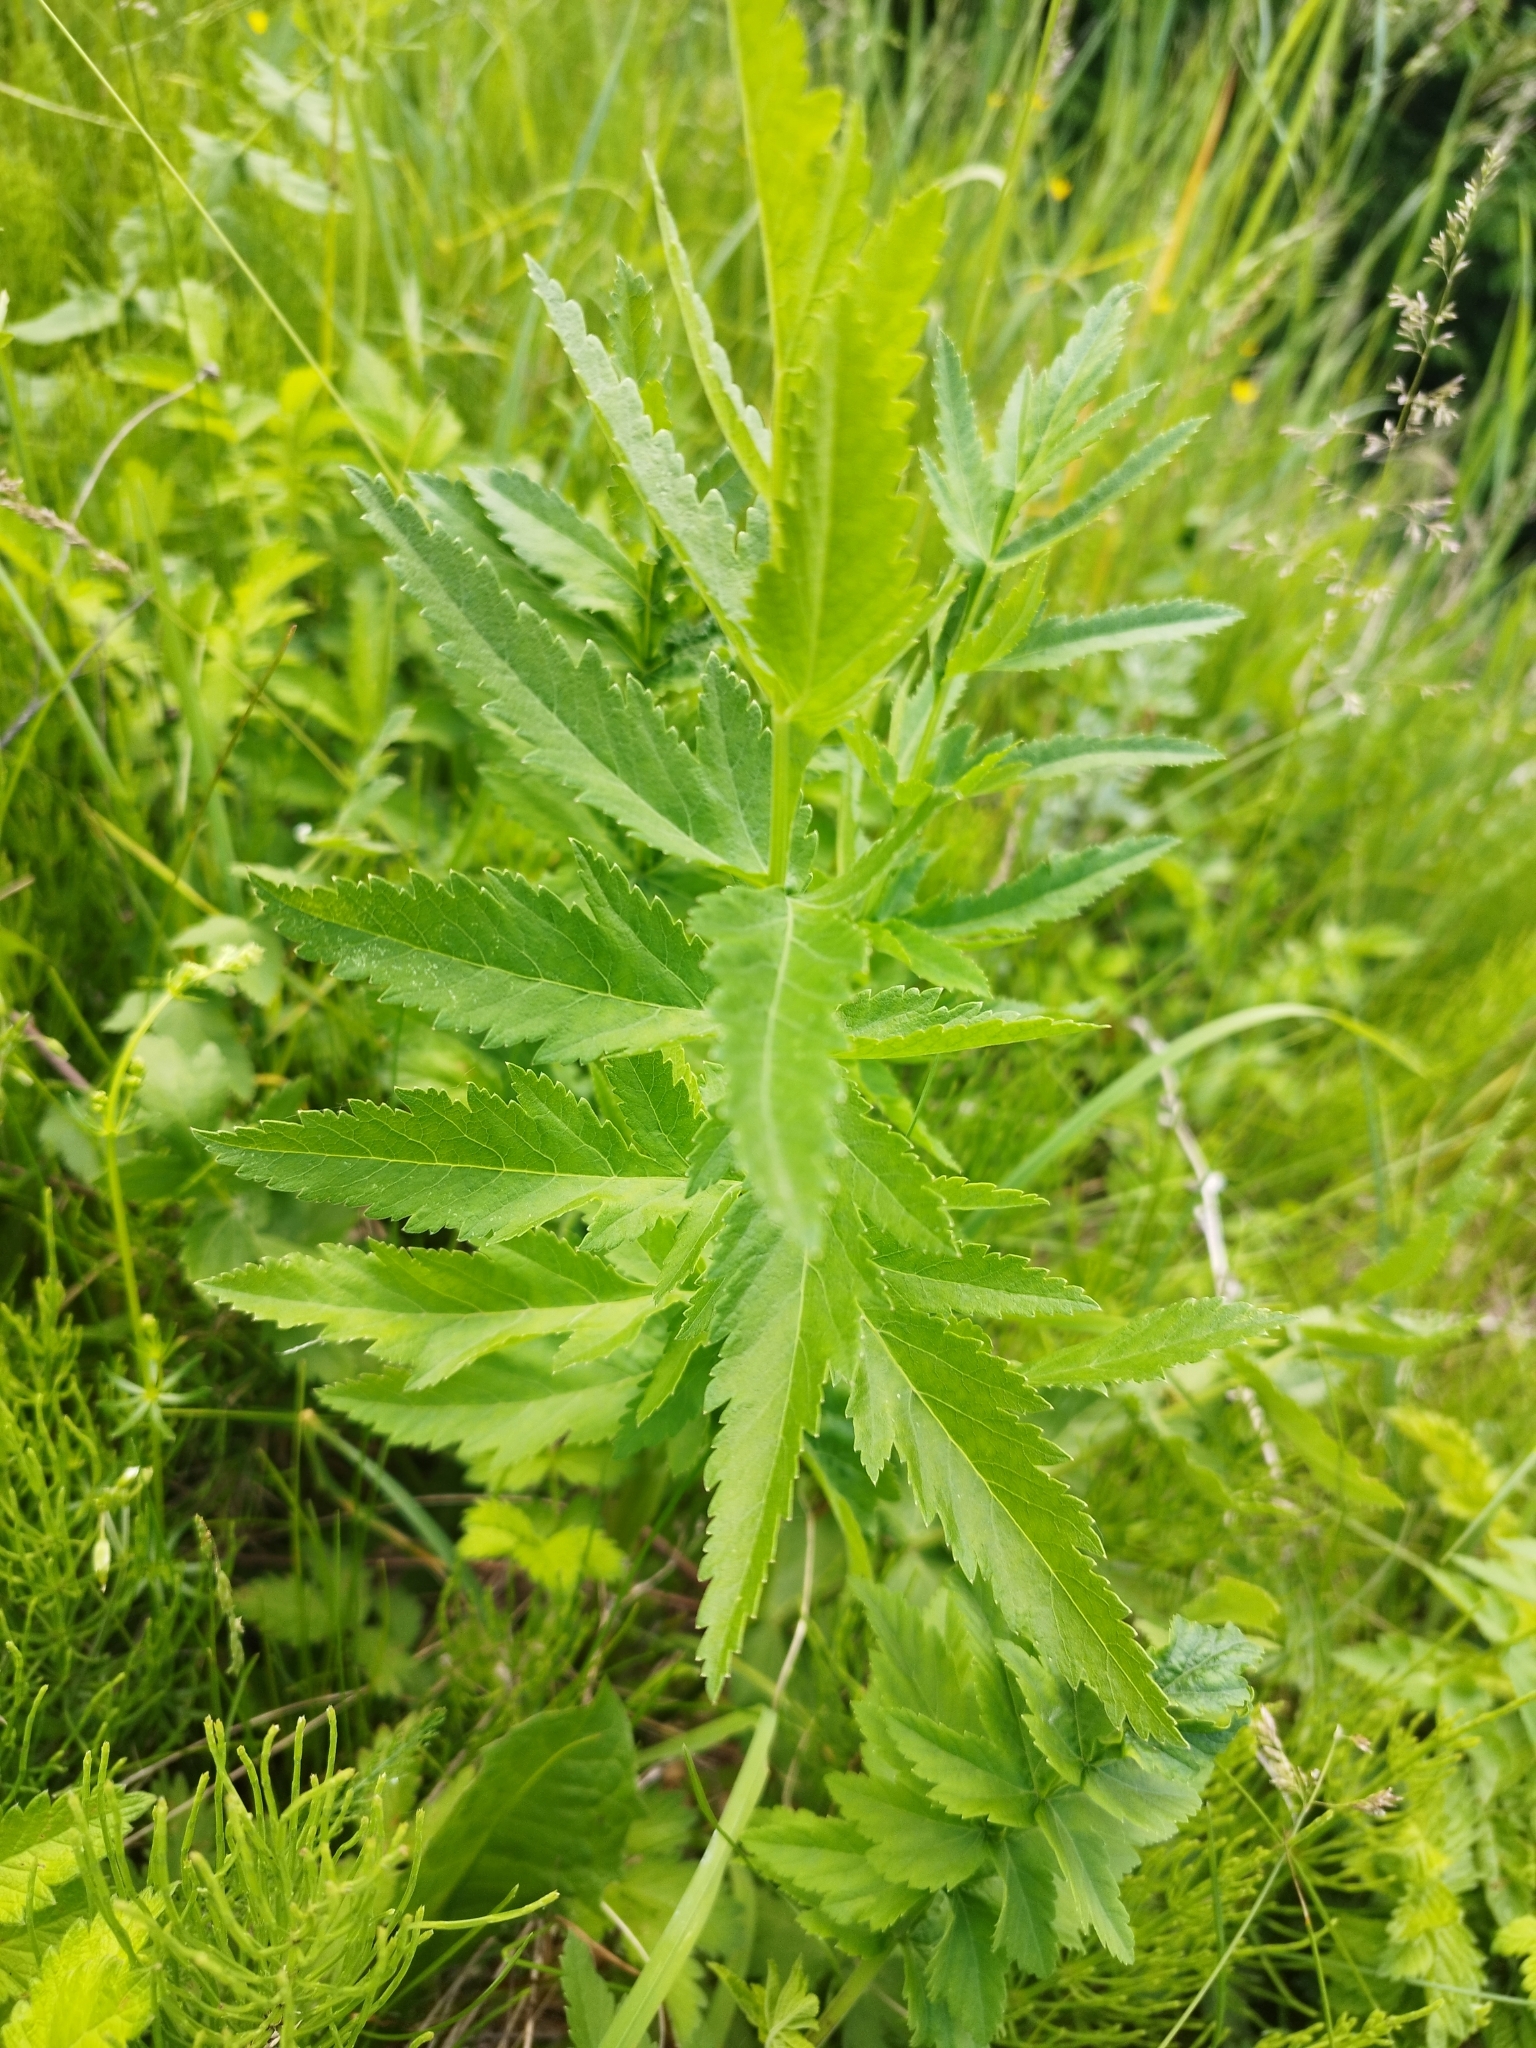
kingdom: Plantae
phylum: Tracheophyta
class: Magnoliopsida
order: Apiales
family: Apiaceae
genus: Pastinaca
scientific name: Pastinaca sativa
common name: Wild parsnip
